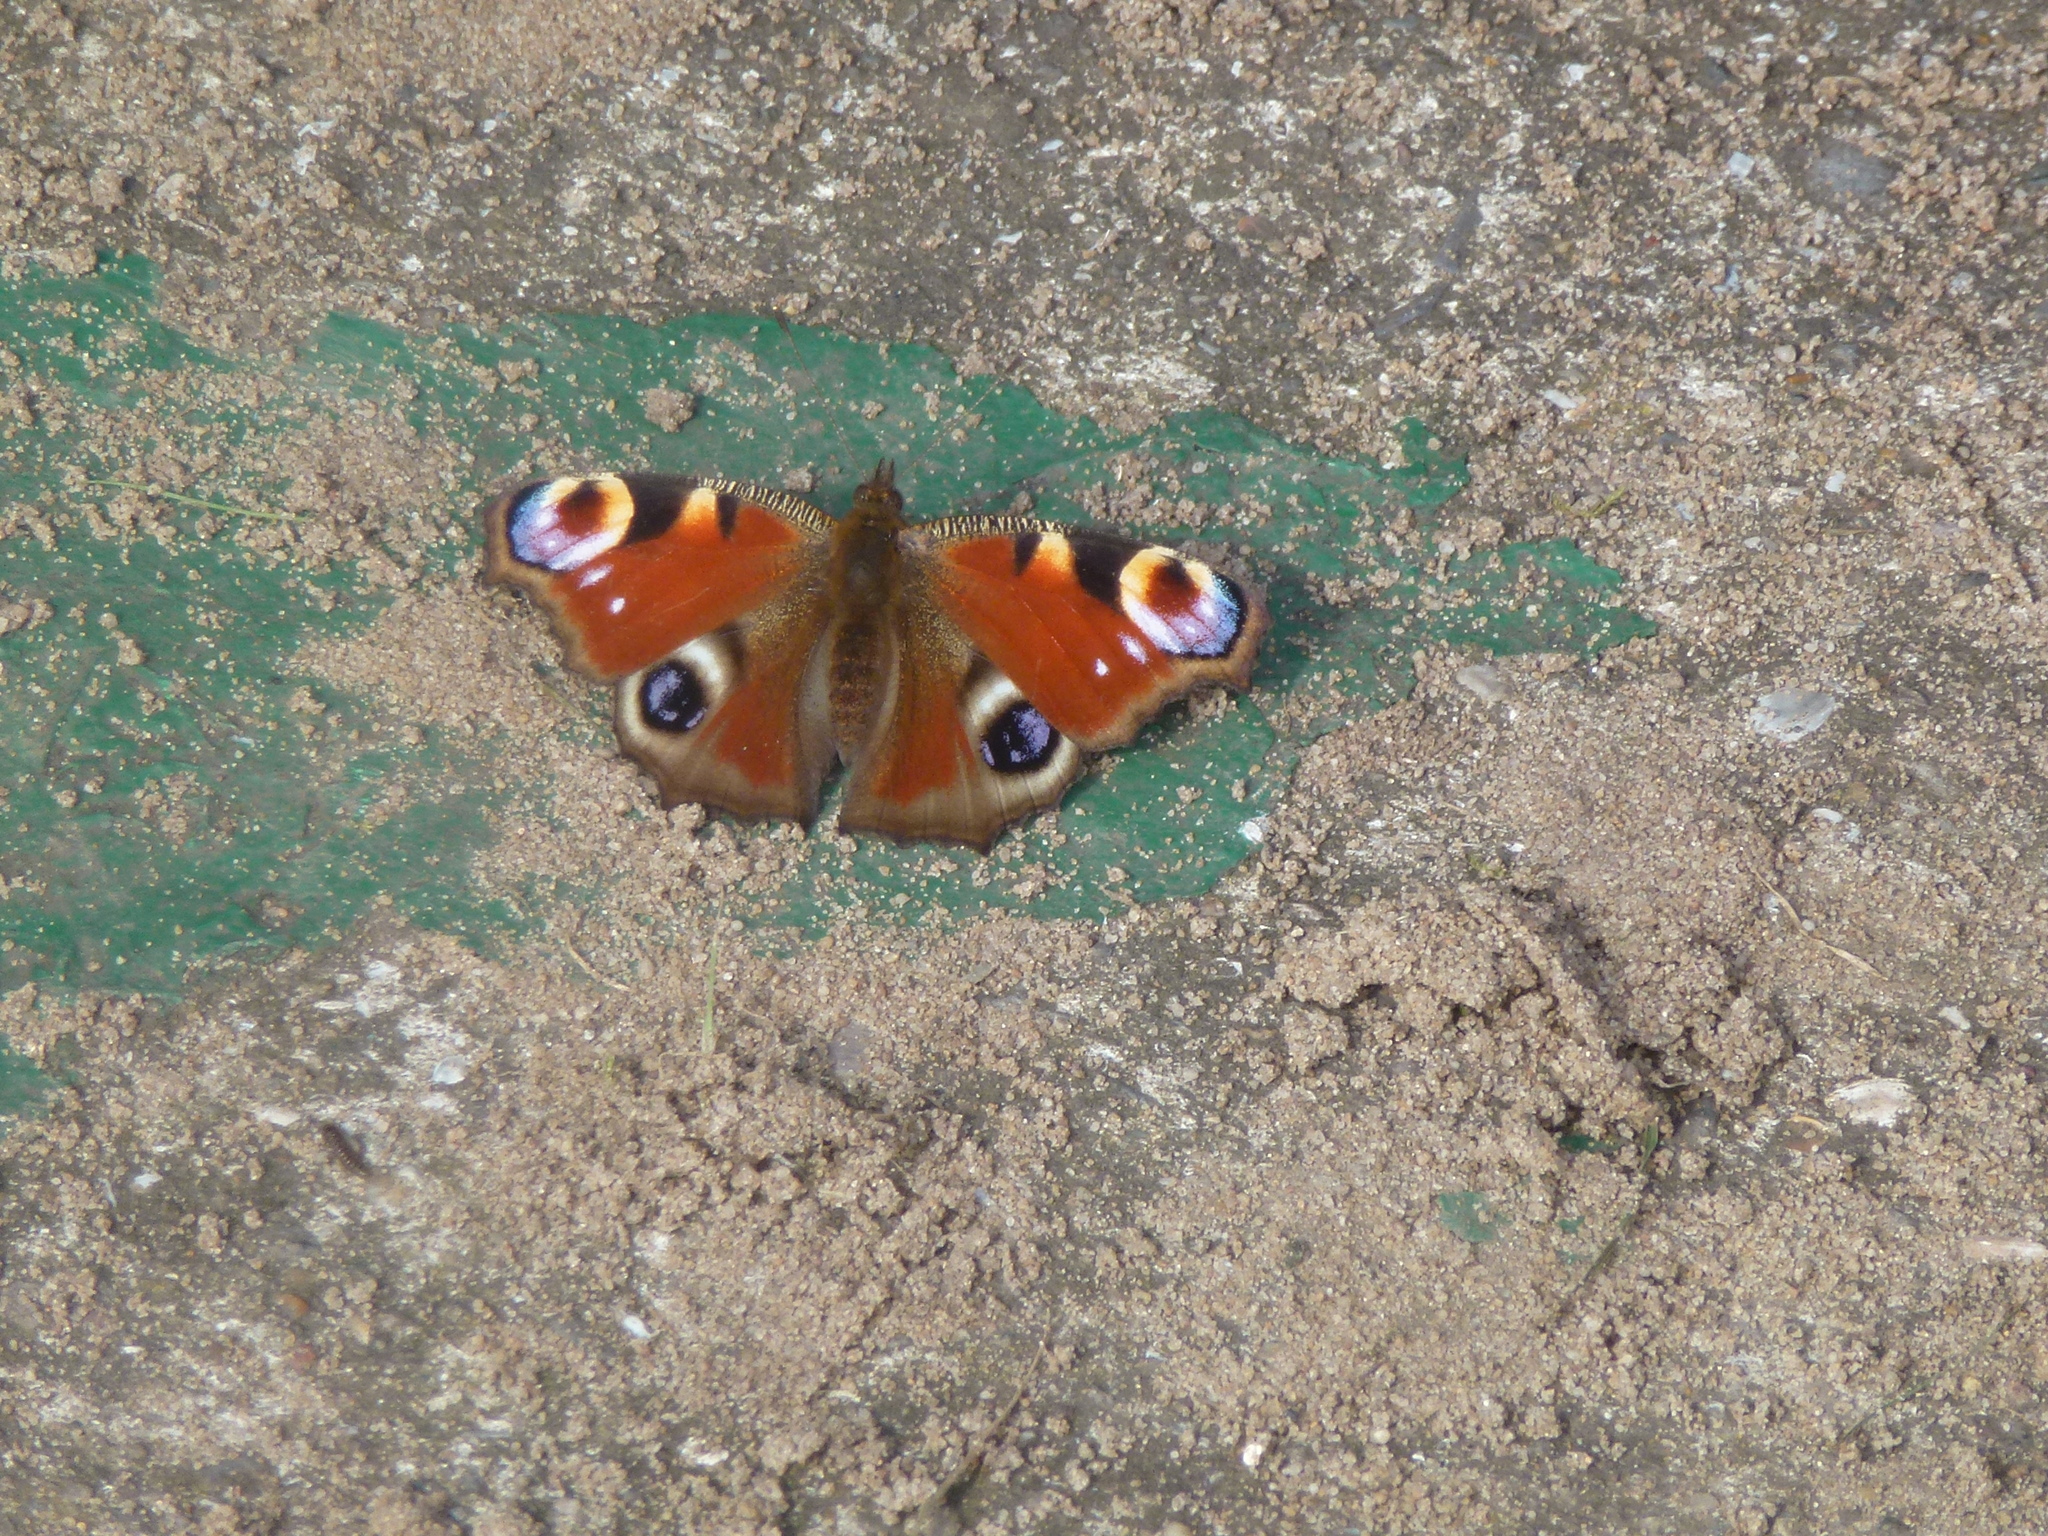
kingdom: Animalia
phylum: Arthropoda
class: Insecta
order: Lepidoptera
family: Nymphalidae
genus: Aglais
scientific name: Aglais io
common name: Peacock
